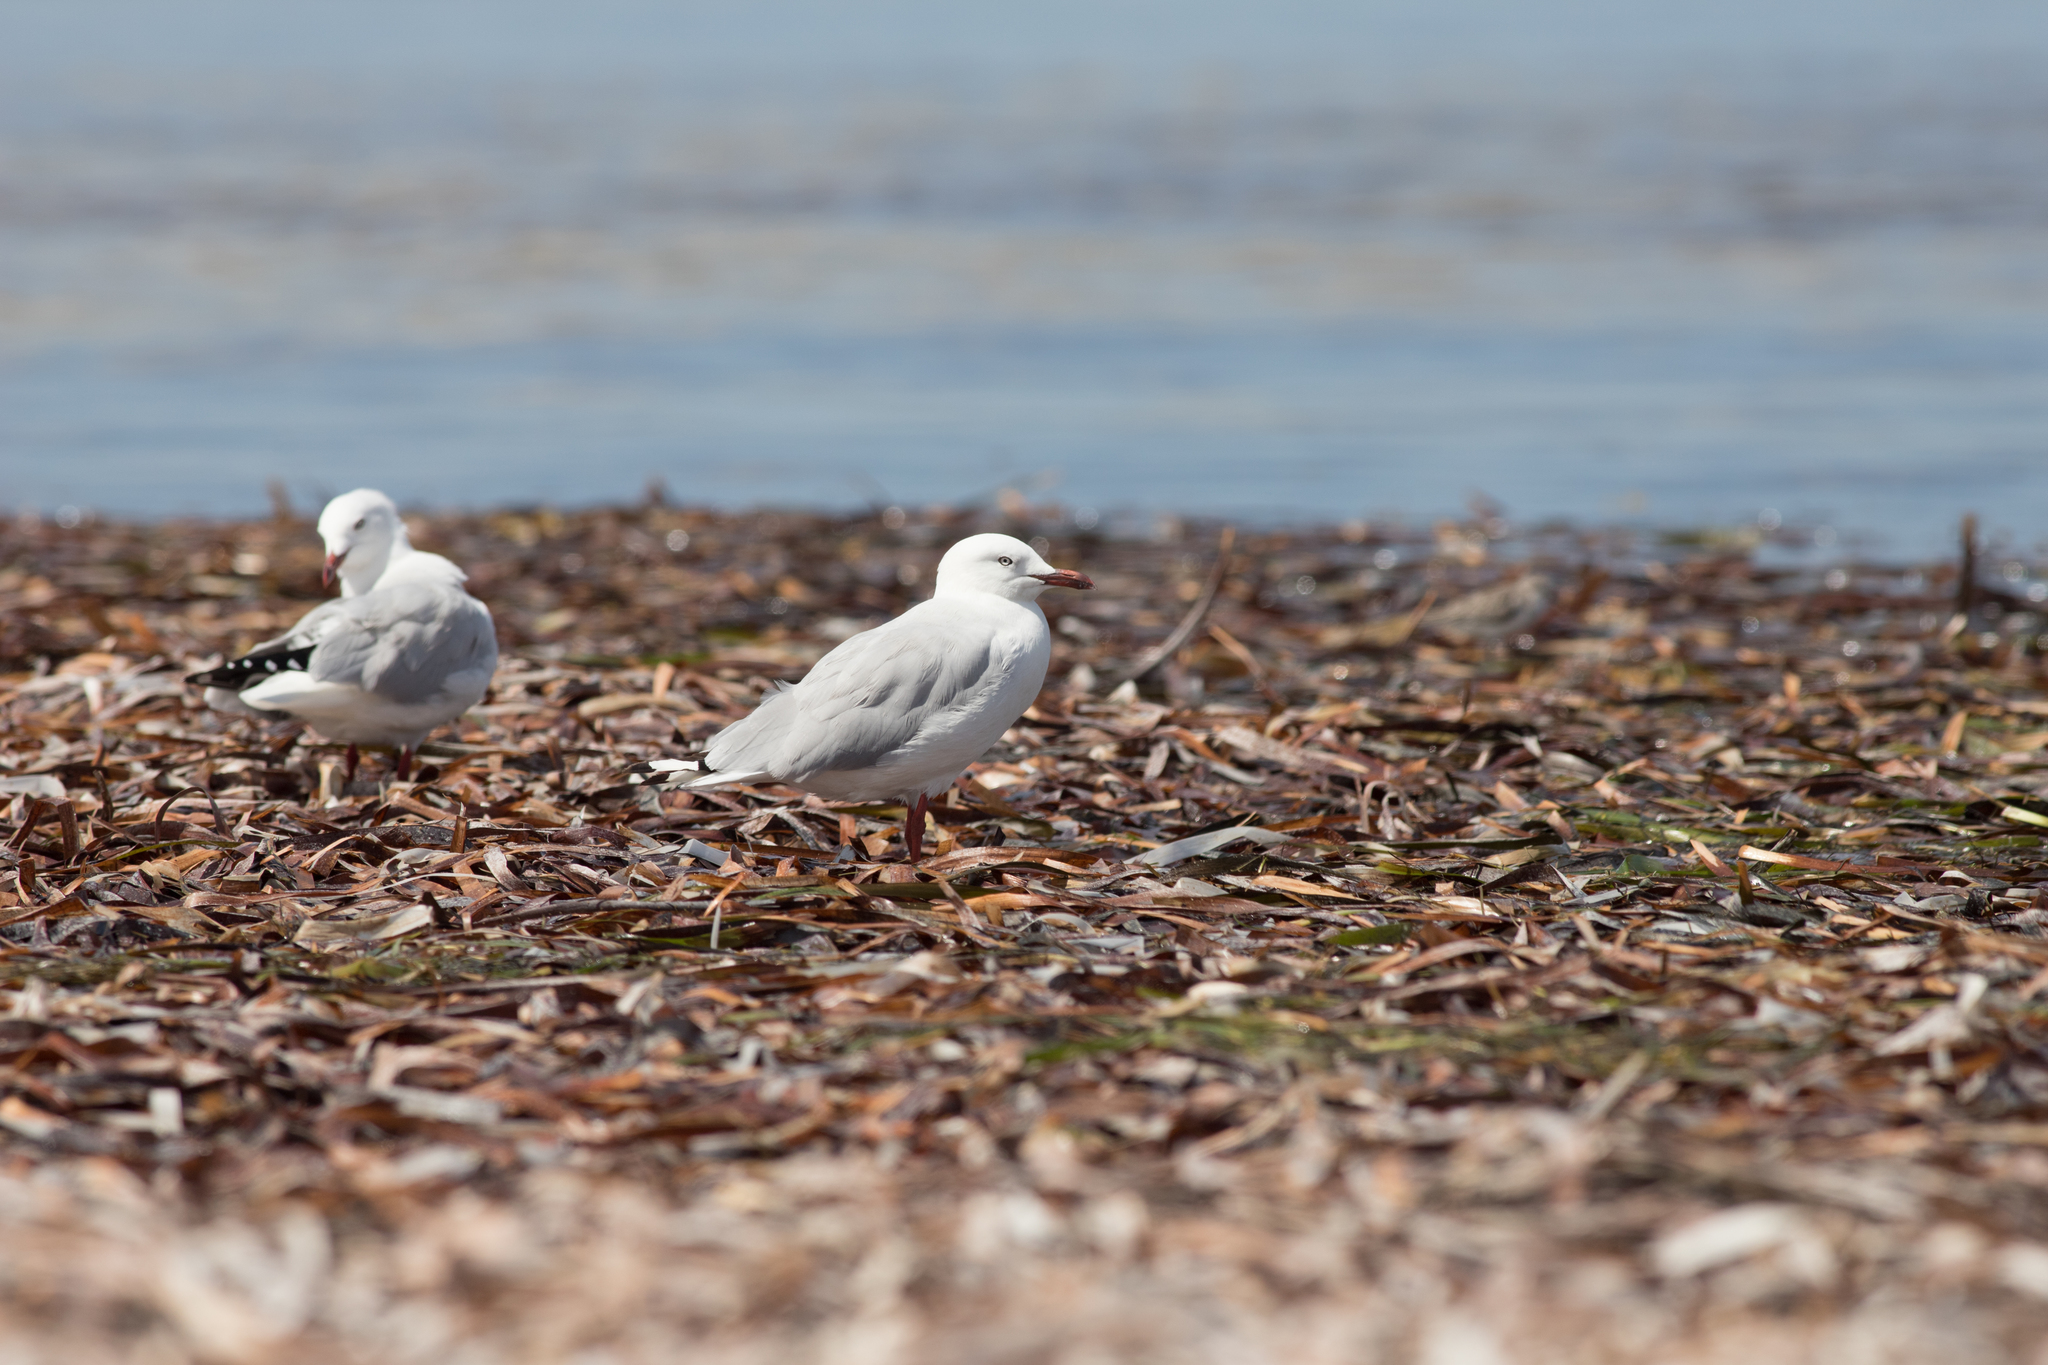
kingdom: Animalia
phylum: Chordata
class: Aves
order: Charadriiformes
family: Laridae
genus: Chroicocephalus
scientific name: Chroicocephalus novaehollandiae
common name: Silver gull
